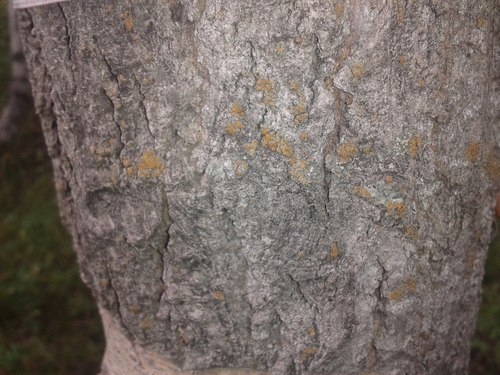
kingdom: Fungi
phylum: Ascomycota
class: Lecanoromycetes
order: Teloschistales
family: Teloschistaceae
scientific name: Teloschistaceae
